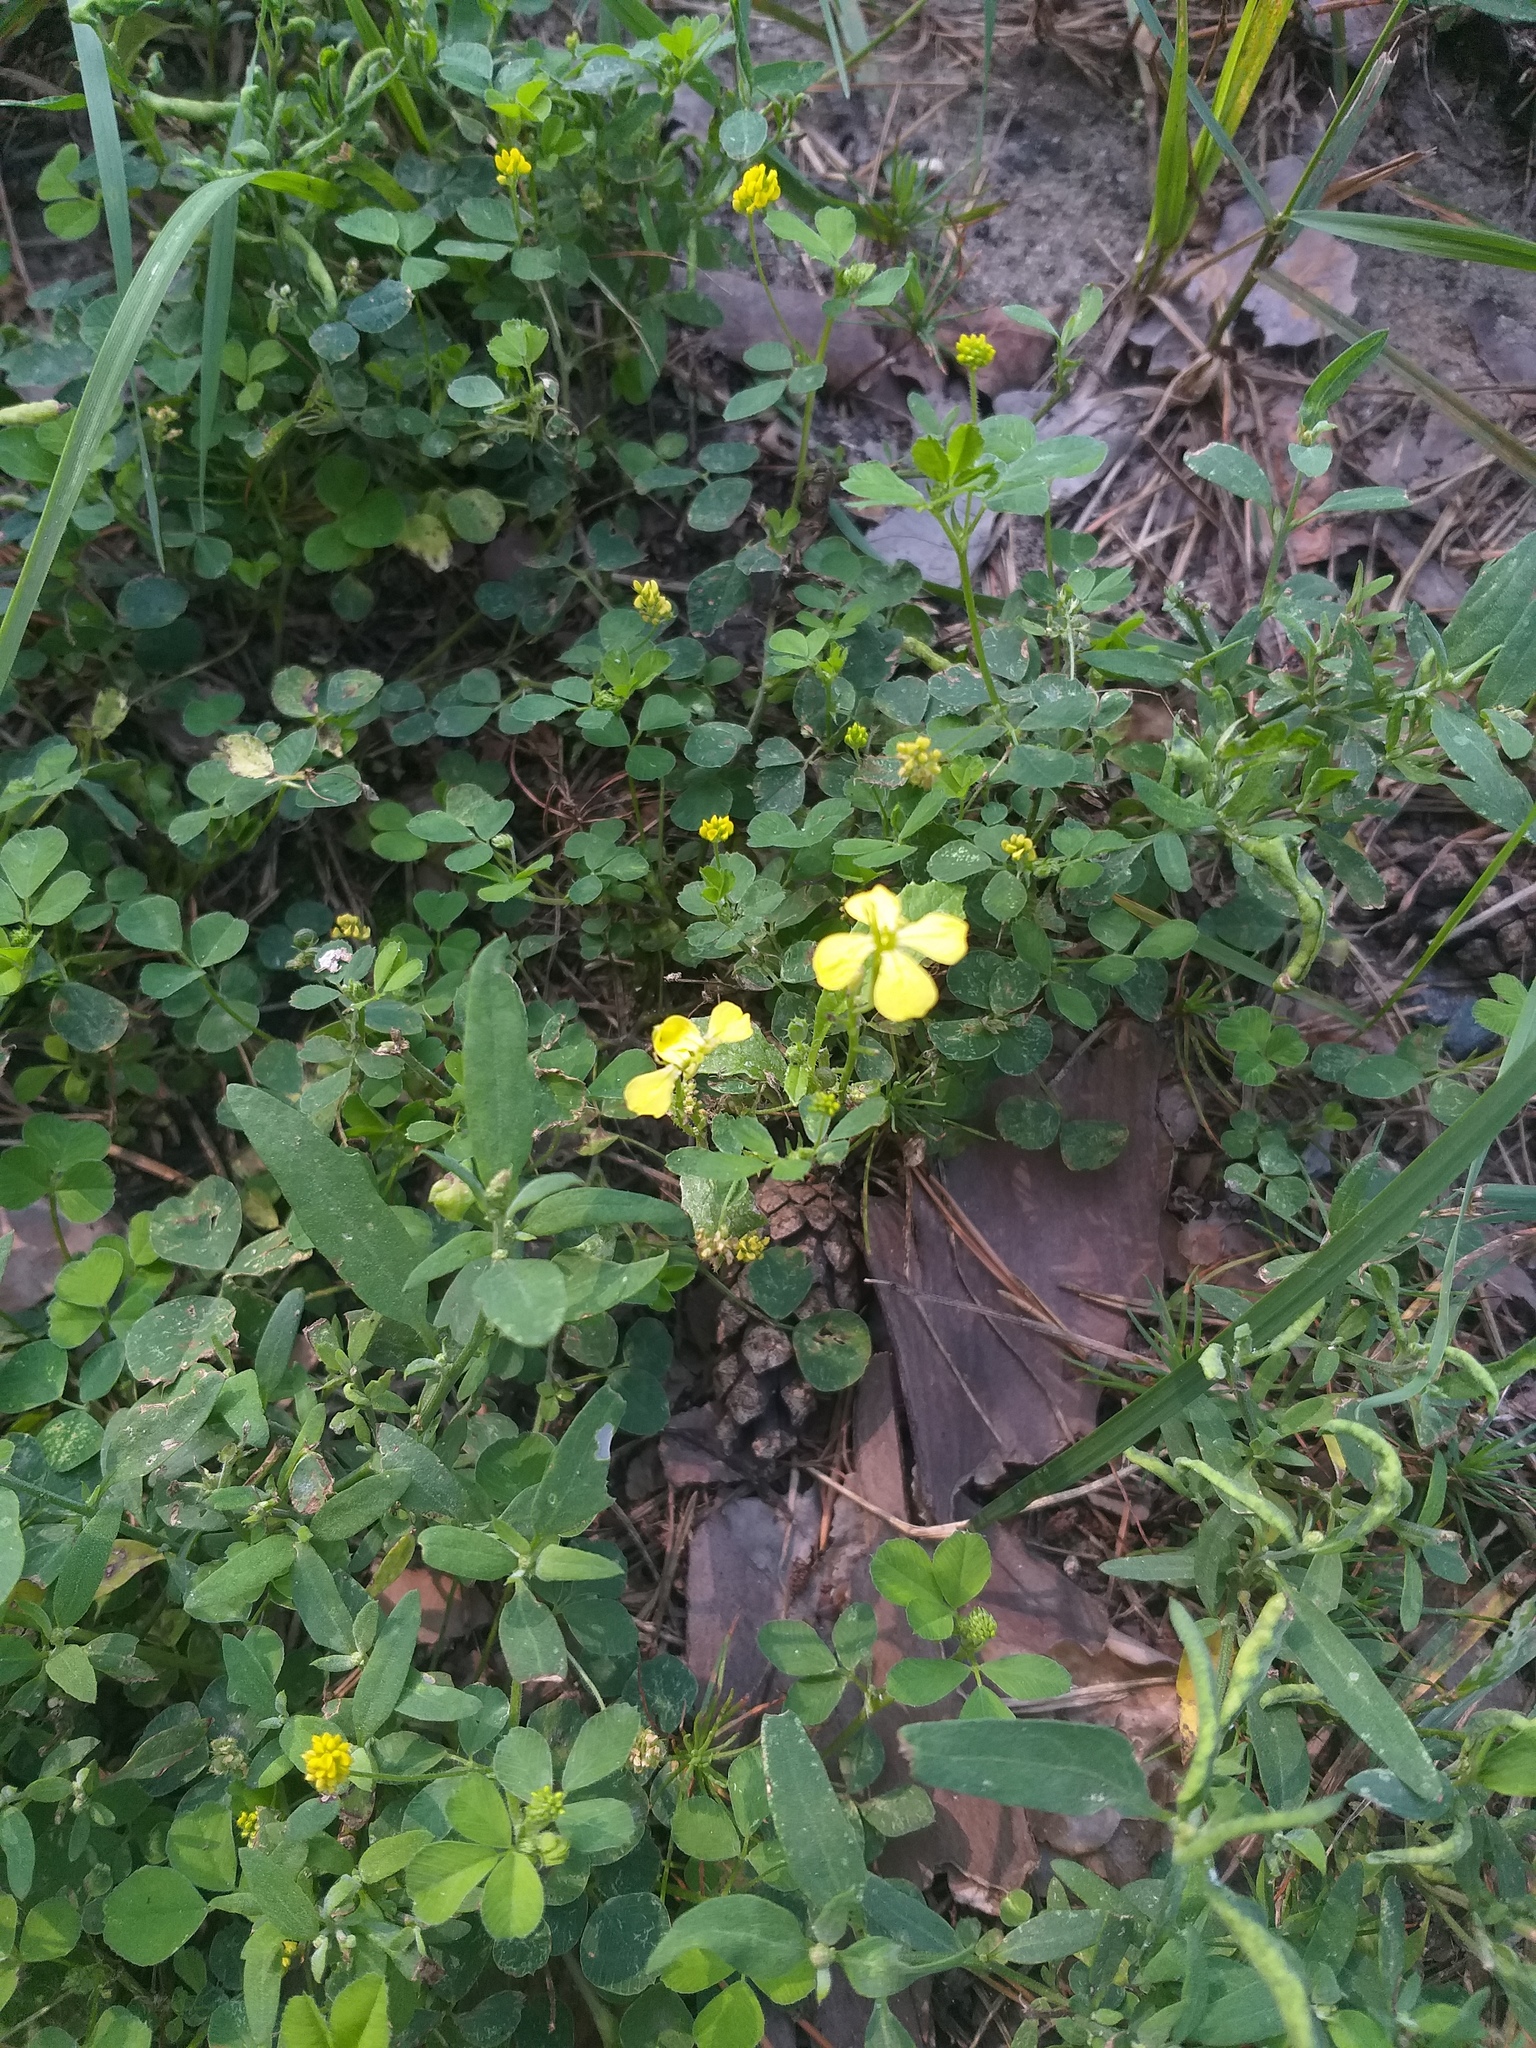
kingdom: Plantae
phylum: Tracheophyta
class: Magnoliopsida
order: Brassicales
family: Brassicaceae
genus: Raphanus
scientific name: Raphanus raphanistrum
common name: Wild radish
